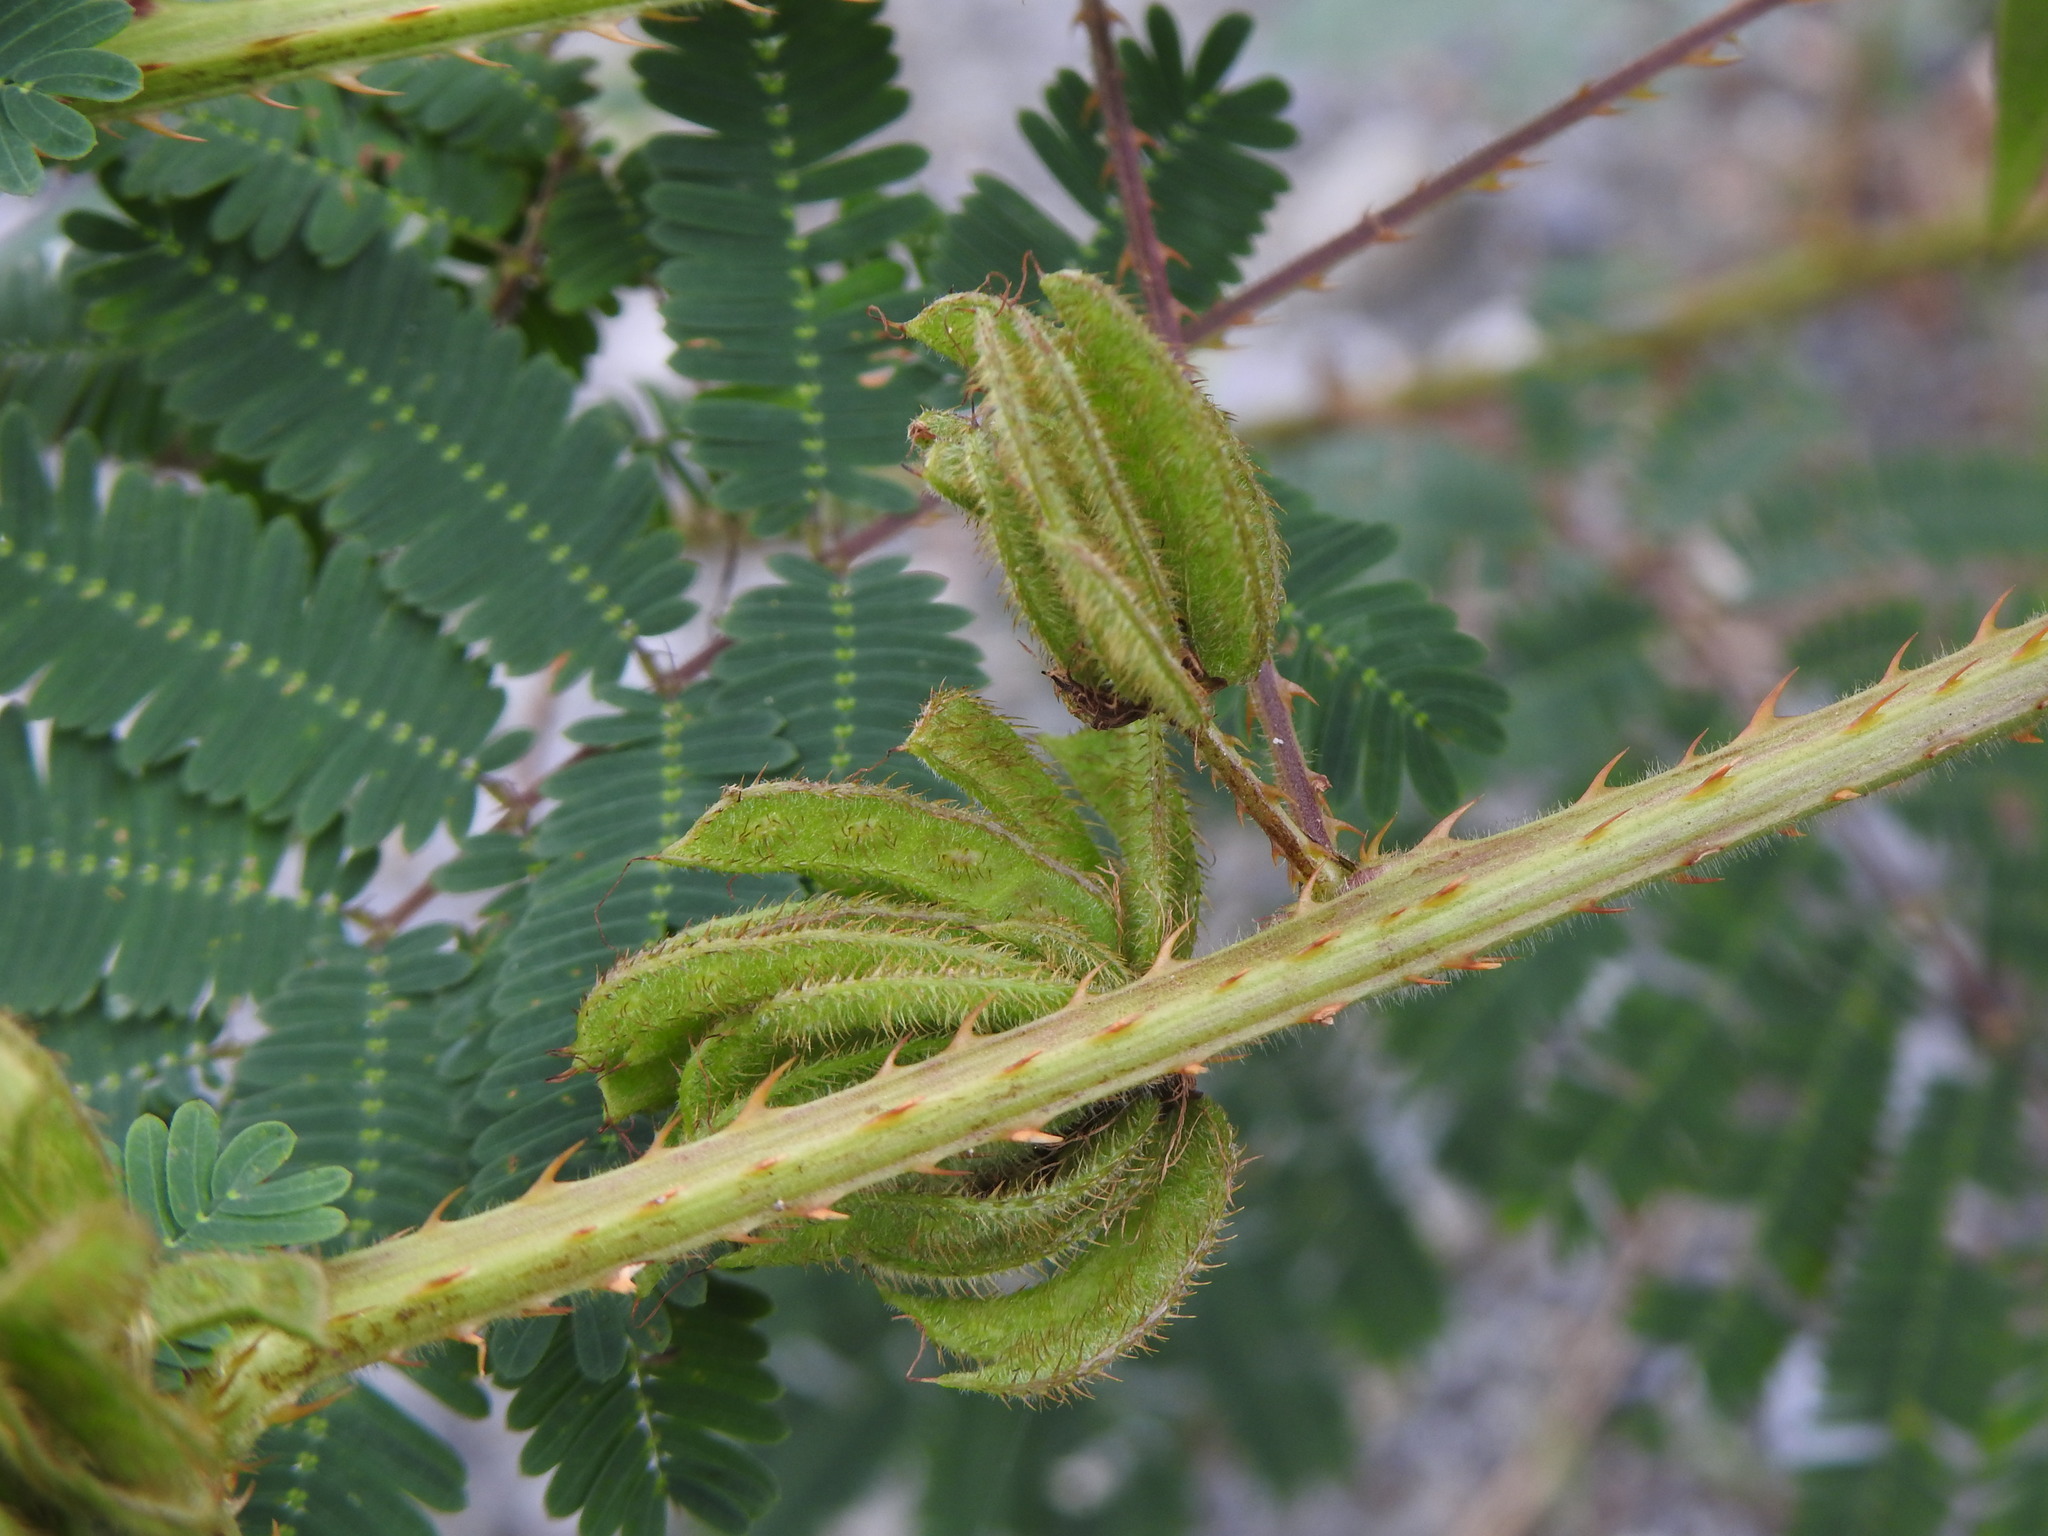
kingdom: Plantae
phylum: Tracheophyta
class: Magnoliopsida
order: Fabales
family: Fabaceae
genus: Mimosa
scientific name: Mimosa diplotricha
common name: Giant sensitive-plant
